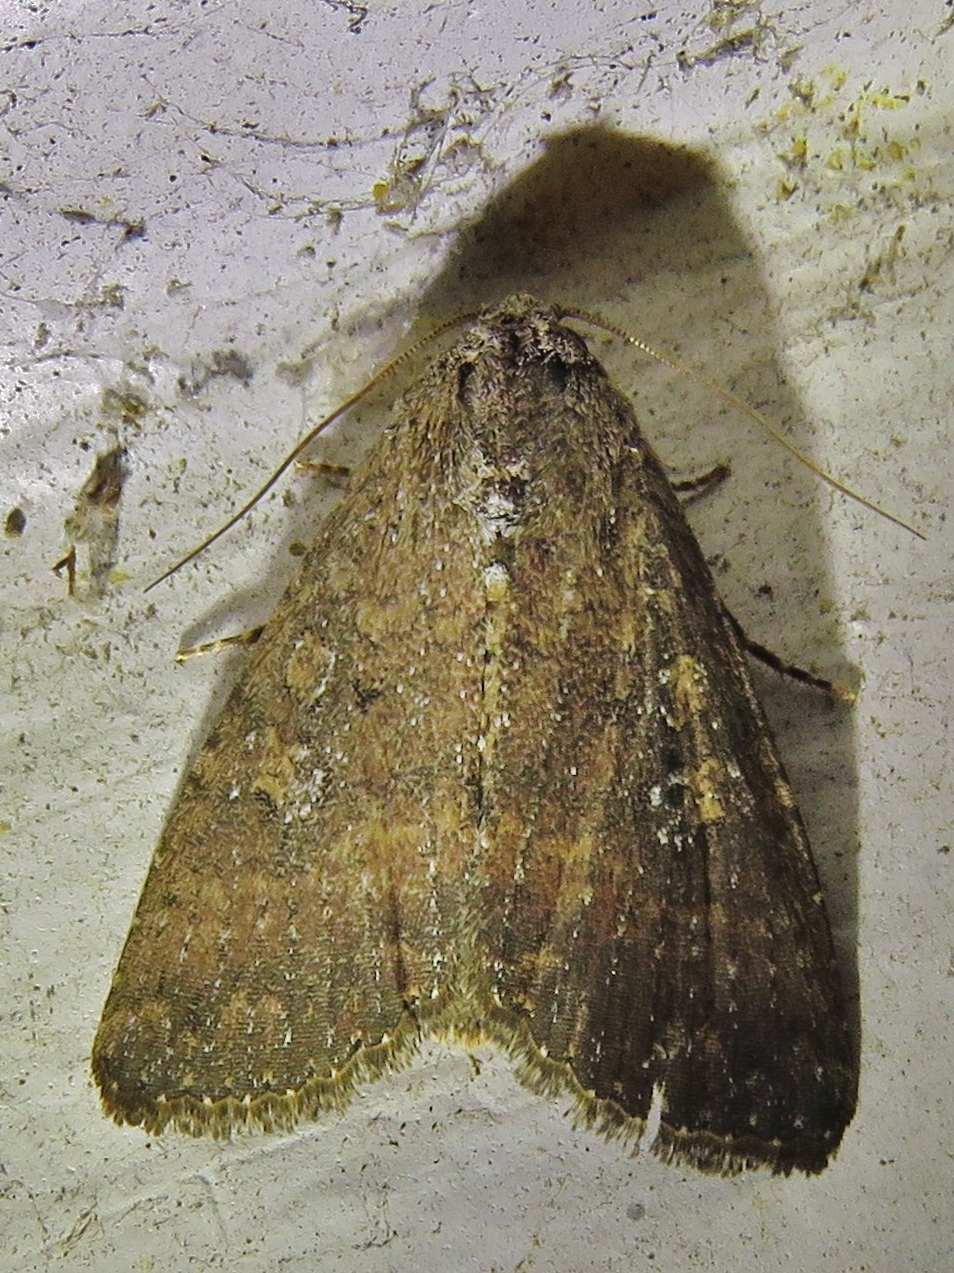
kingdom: Animalia
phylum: Arthropoda
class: Insecta
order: Lepidoptera
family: Noctuidae
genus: Condica
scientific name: Condica sutor
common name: Cobbler moth
